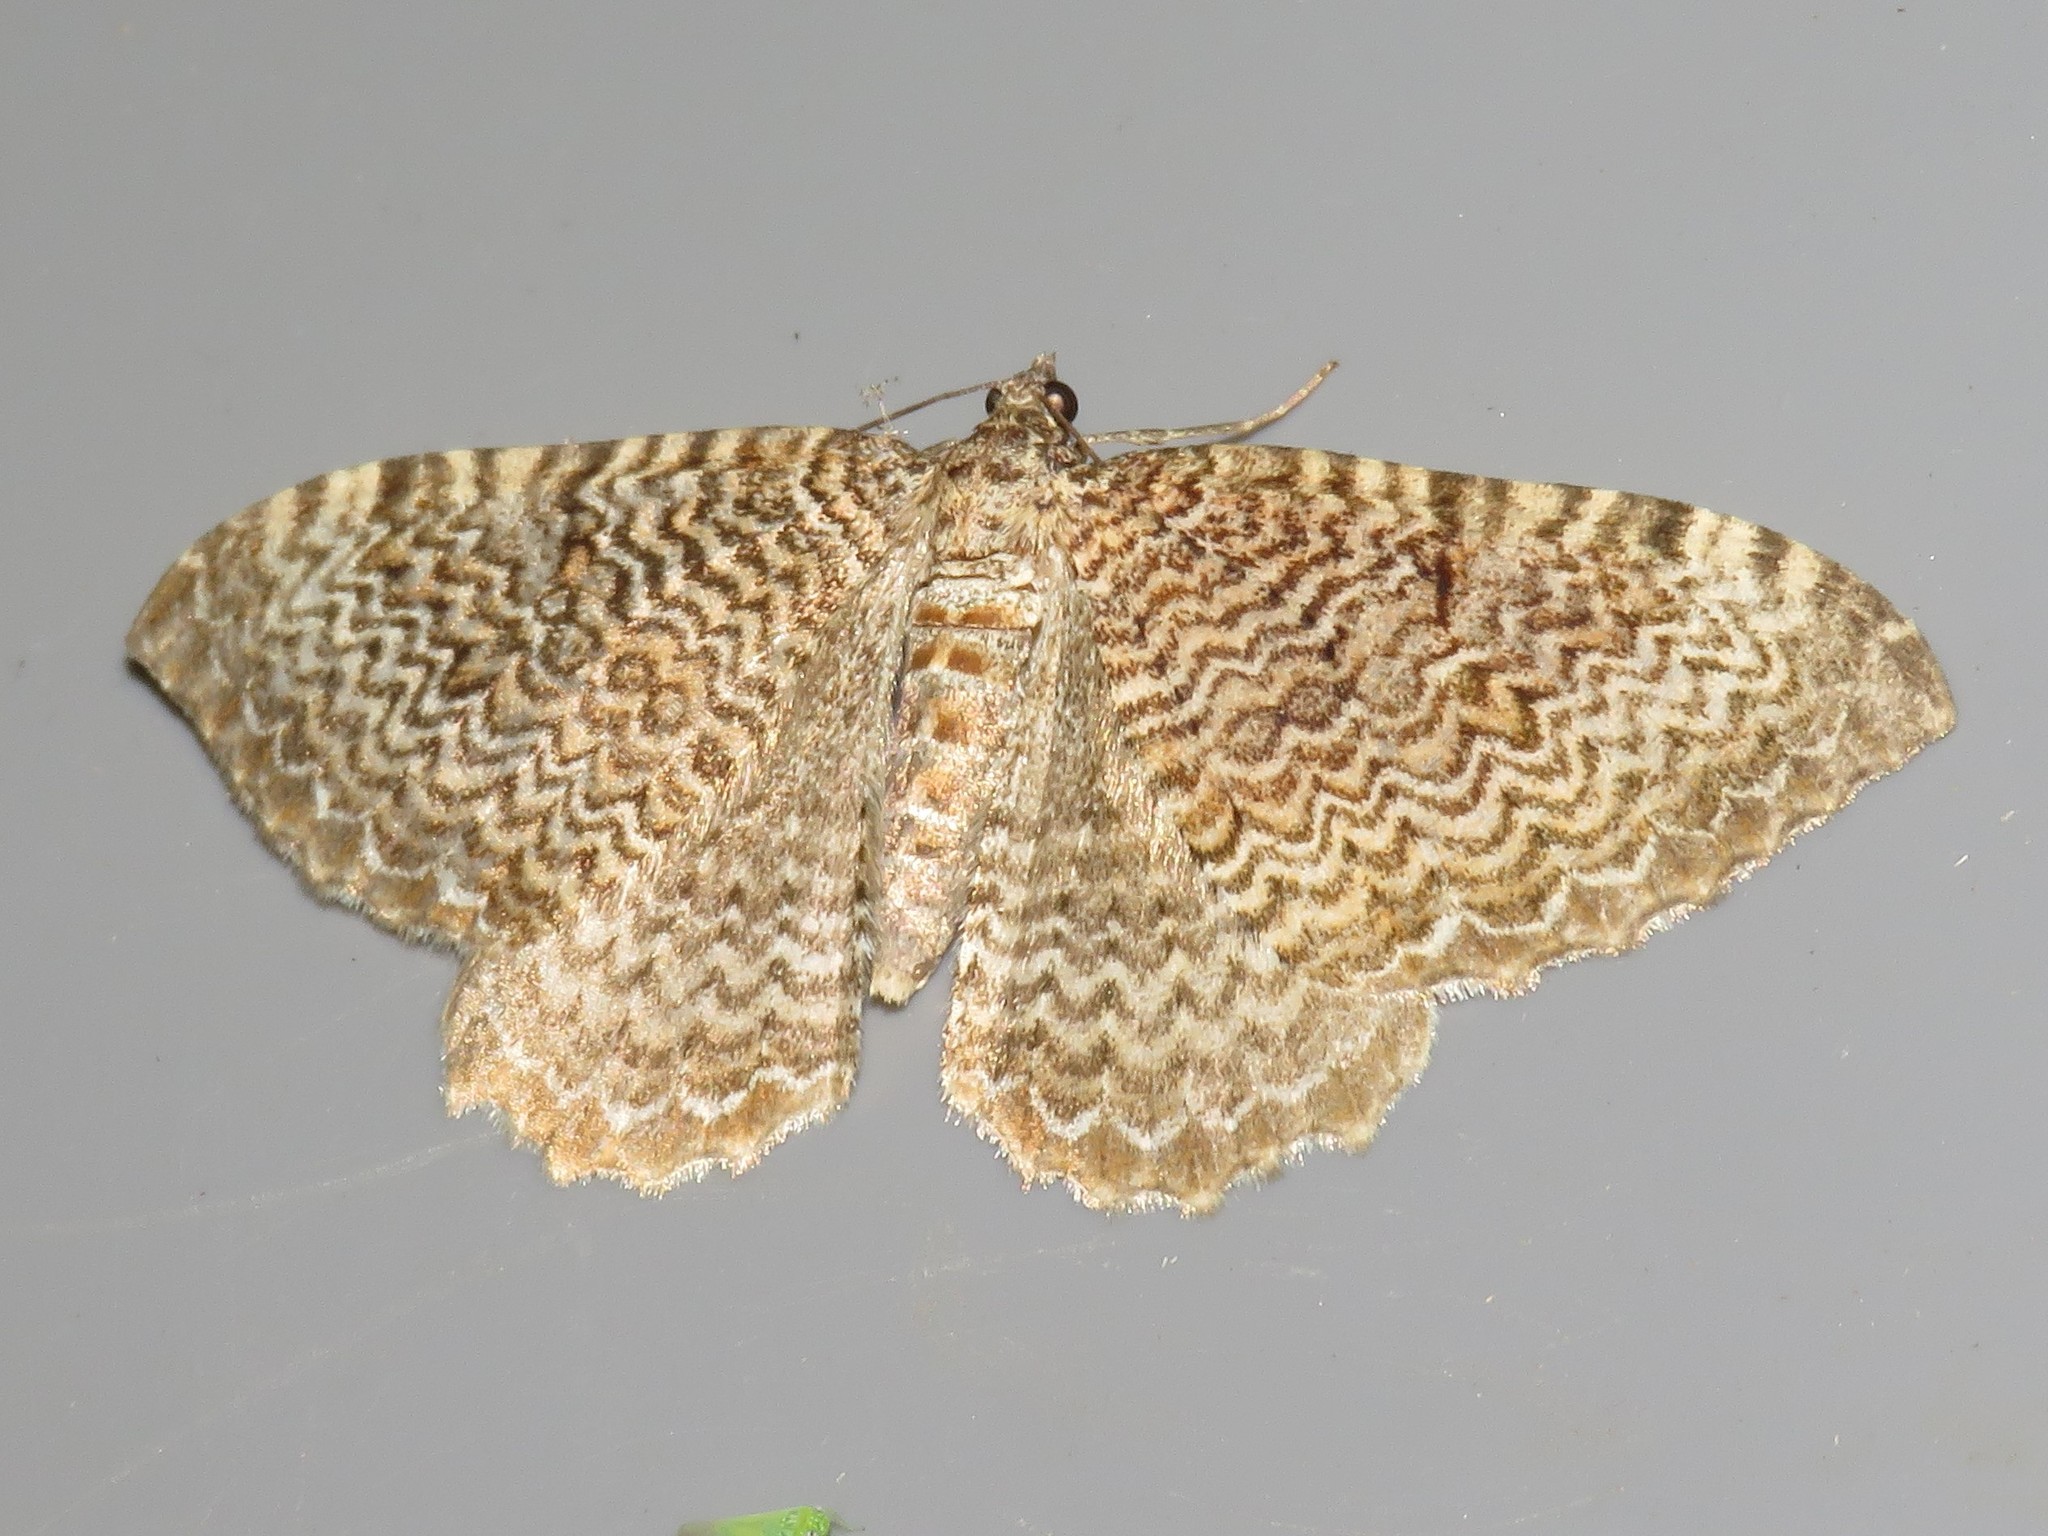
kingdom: Animalia
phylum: Arthropoda
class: Insecta
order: Lepidoptera
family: Geometridae
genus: Rheumaptera
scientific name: Rheumaptera
